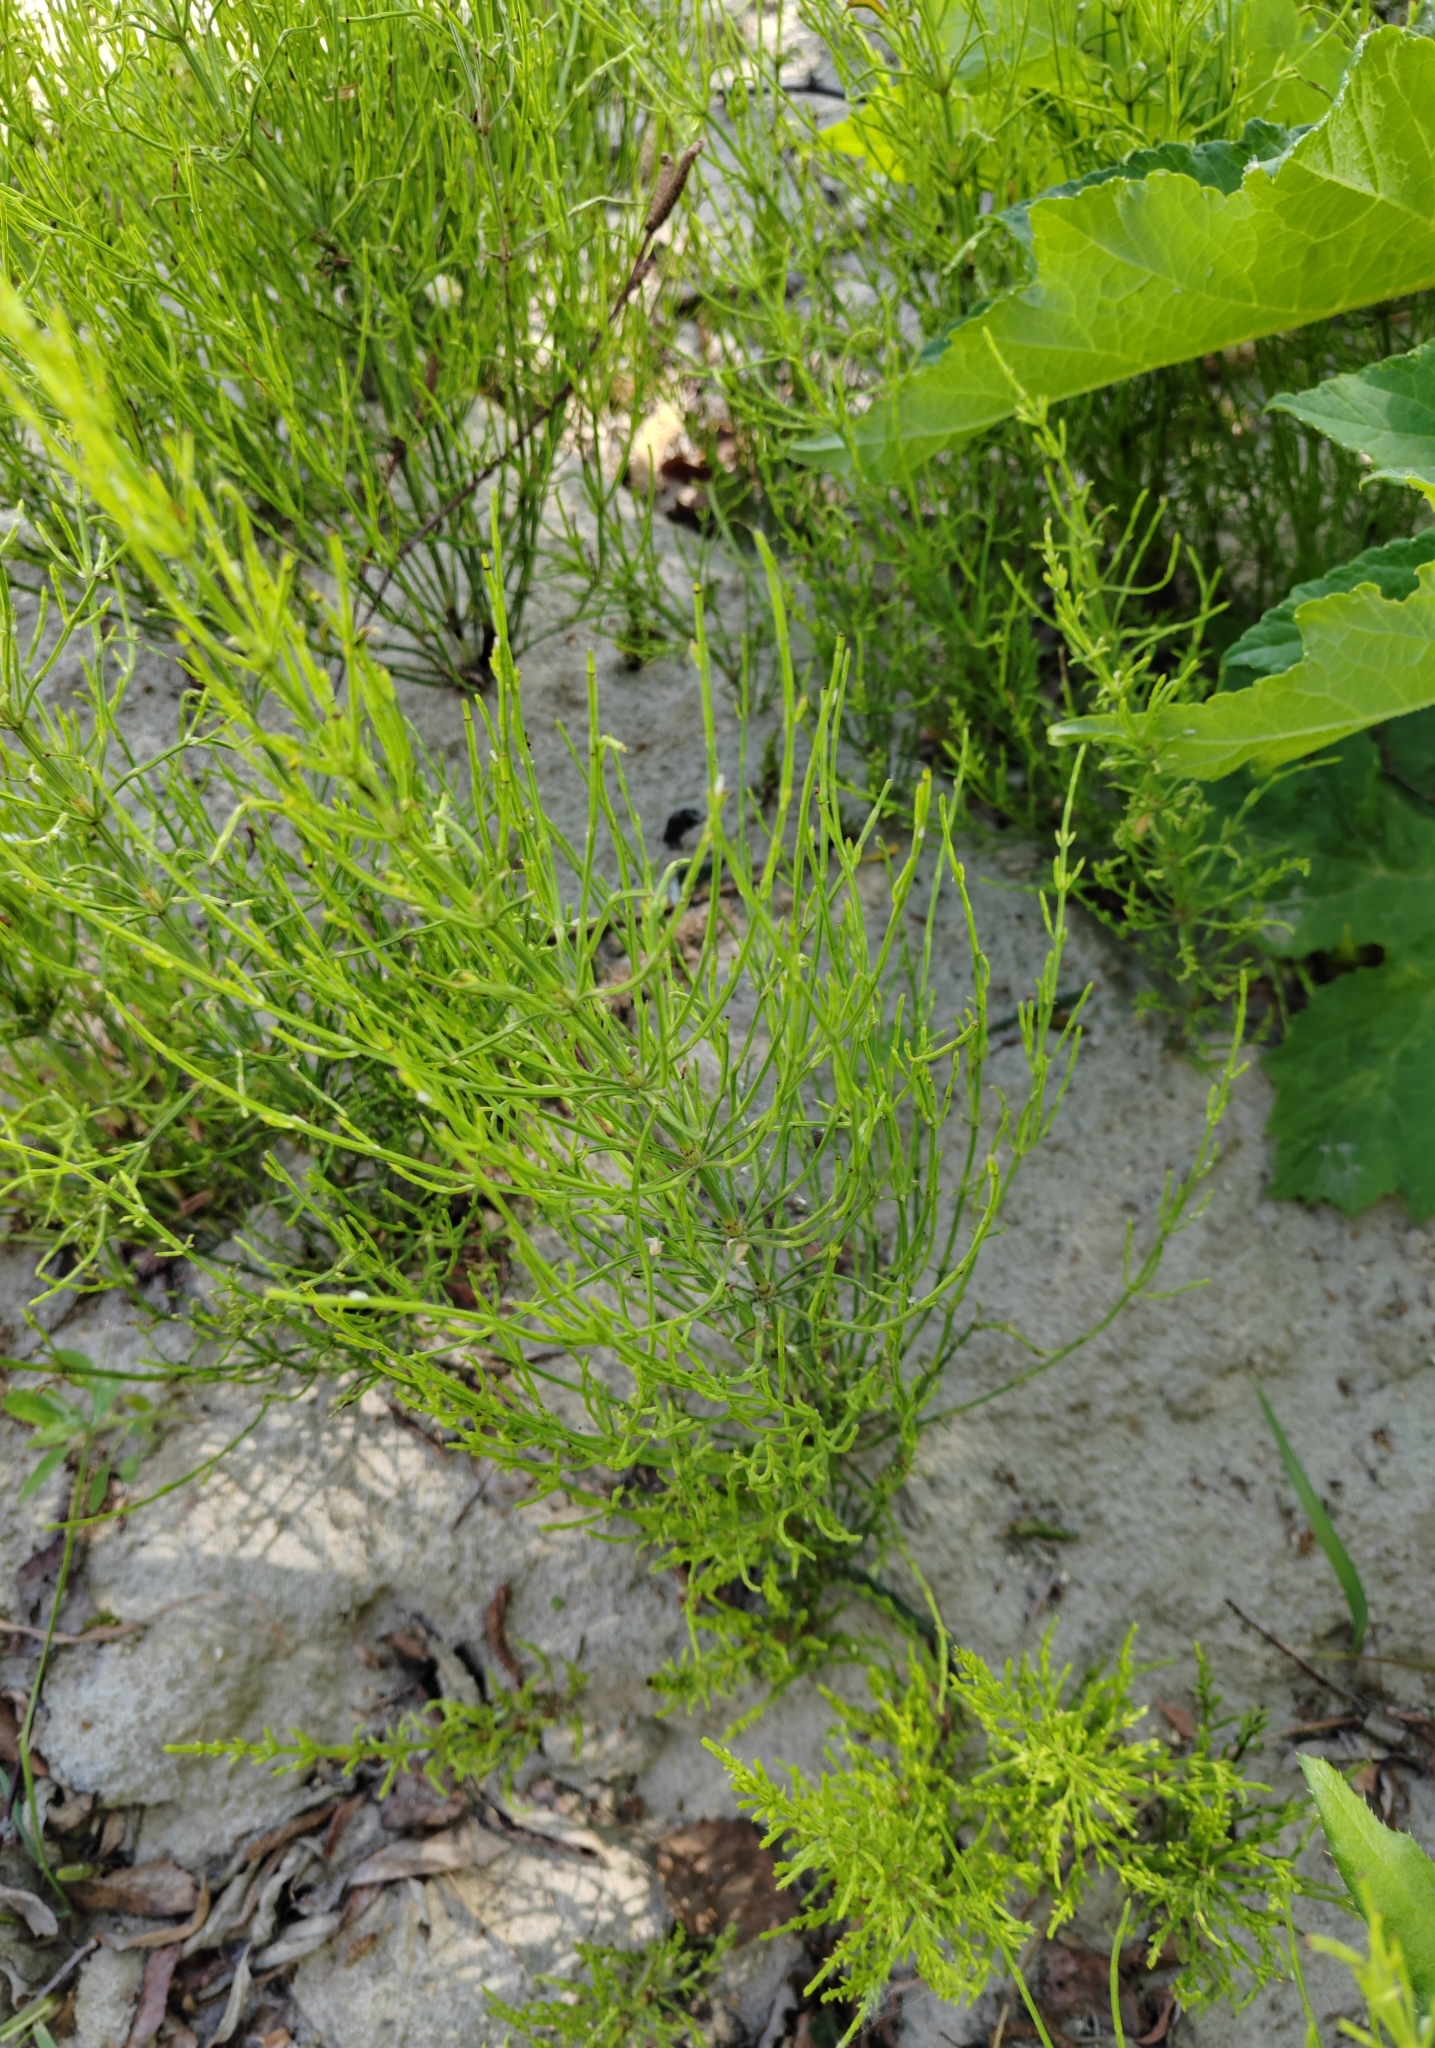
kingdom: Plantae
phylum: Tracheophyta
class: Polypodiopsida
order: Equisetales
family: Equisetaceae
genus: Equisetum
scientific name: Equisetum arvense
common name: Field horsetail
